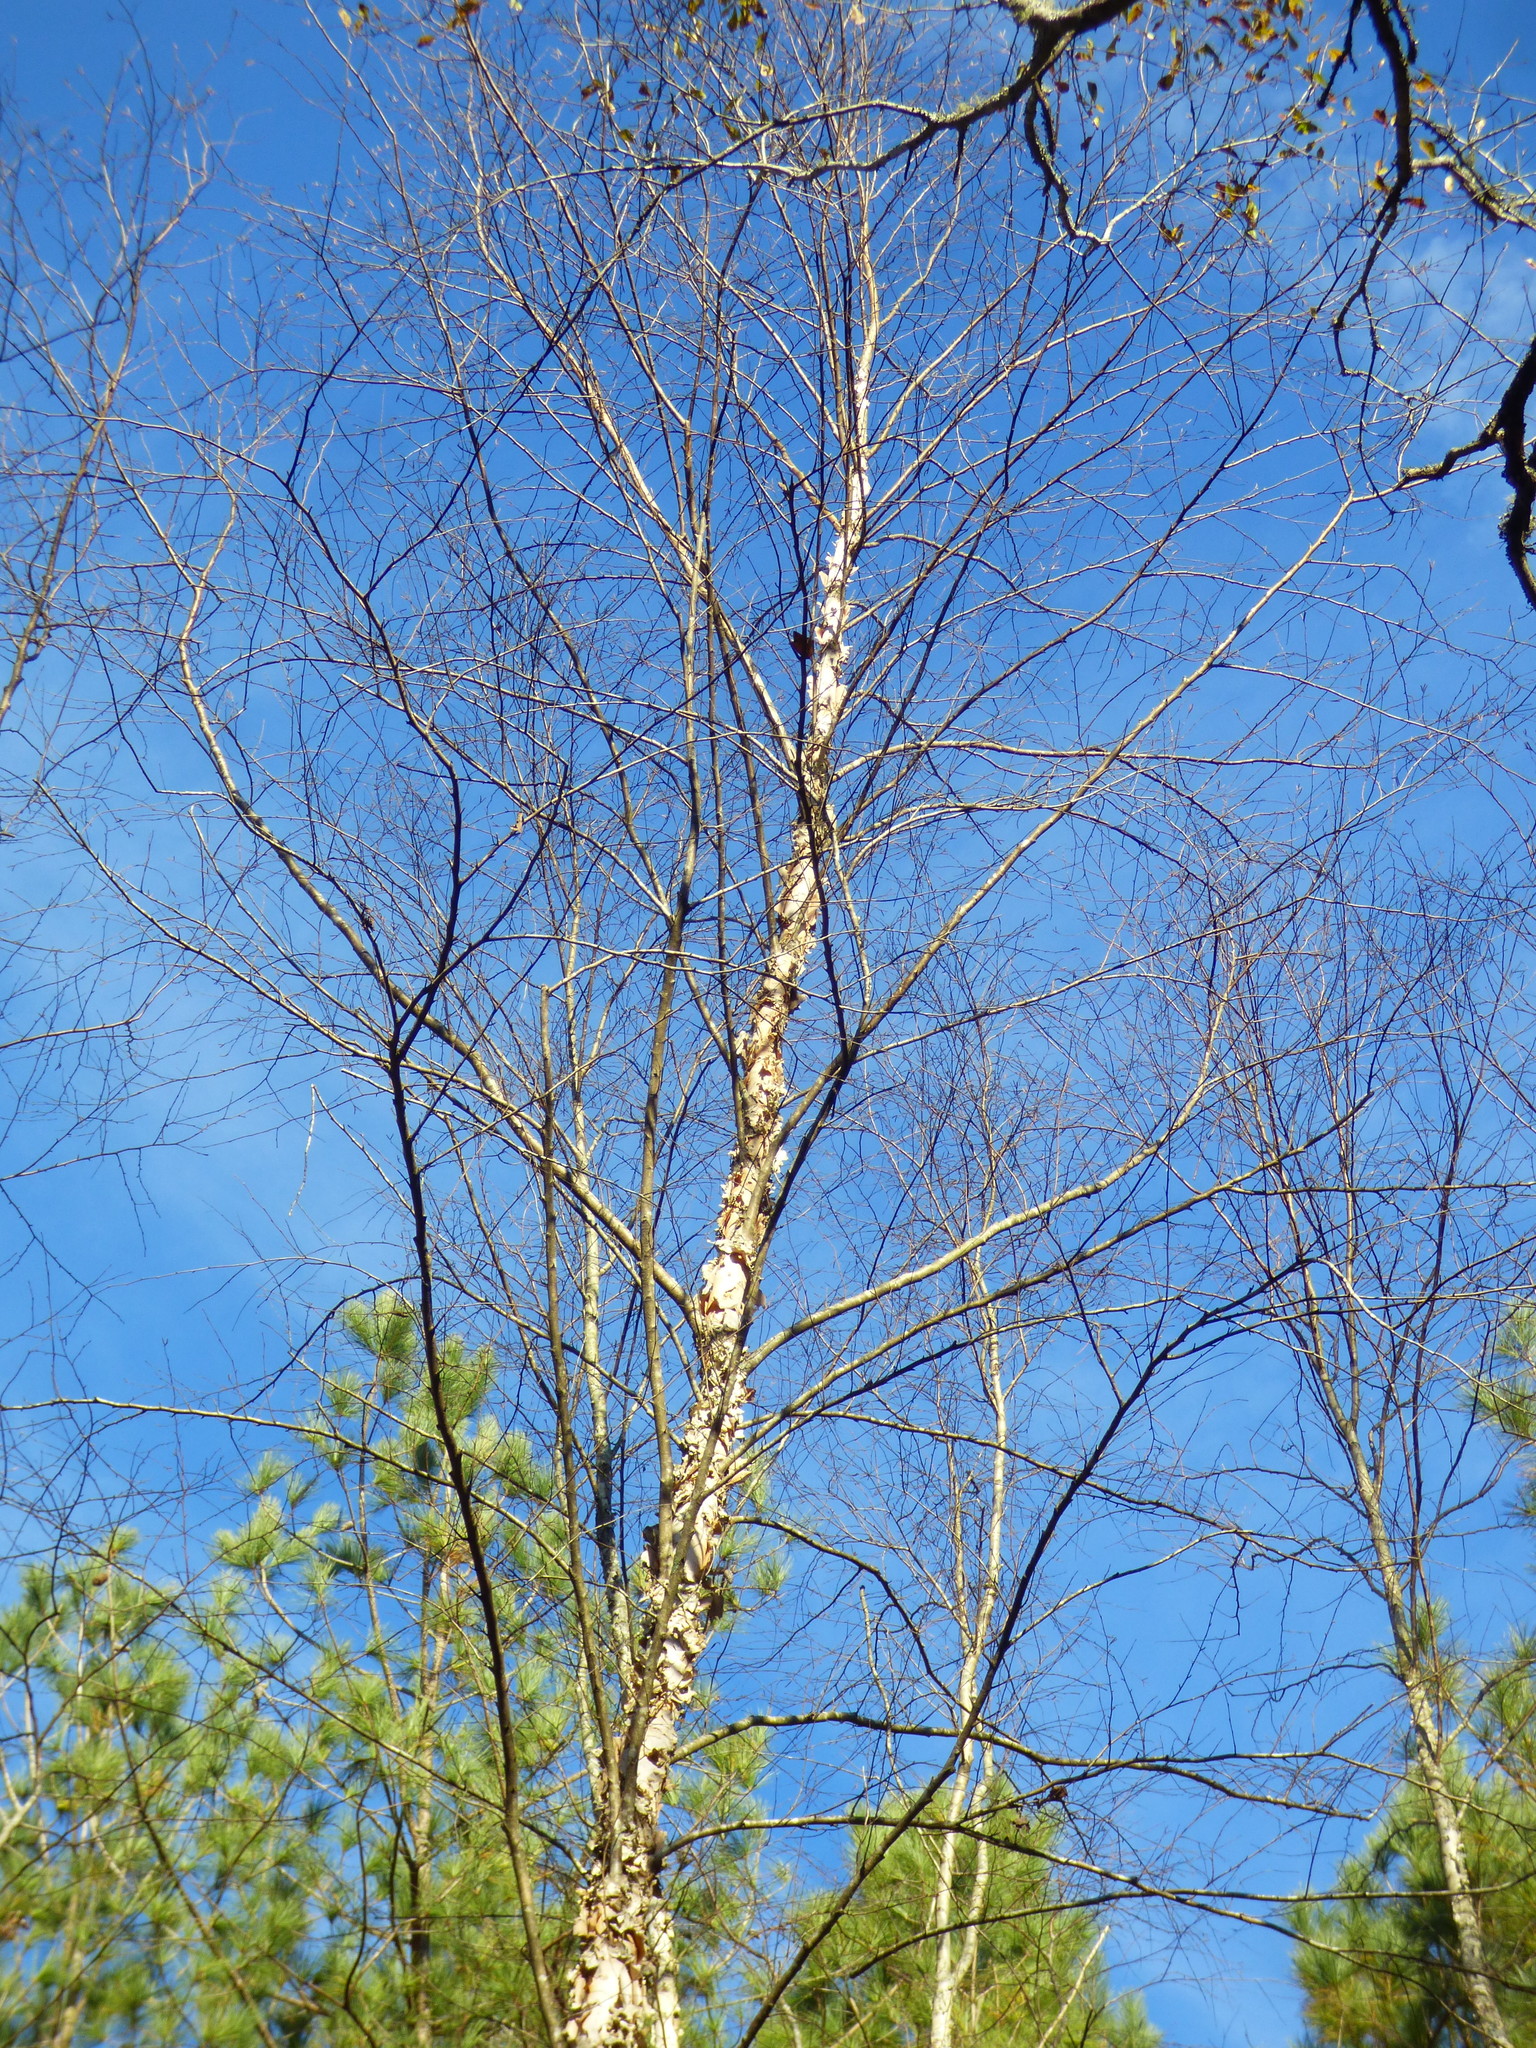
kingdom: Plantae
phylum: Tracheophyta
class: Magnoliopsida
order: Fagales
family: Betulaceae
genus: Betula
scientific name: Betula nigra
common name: Black birch
